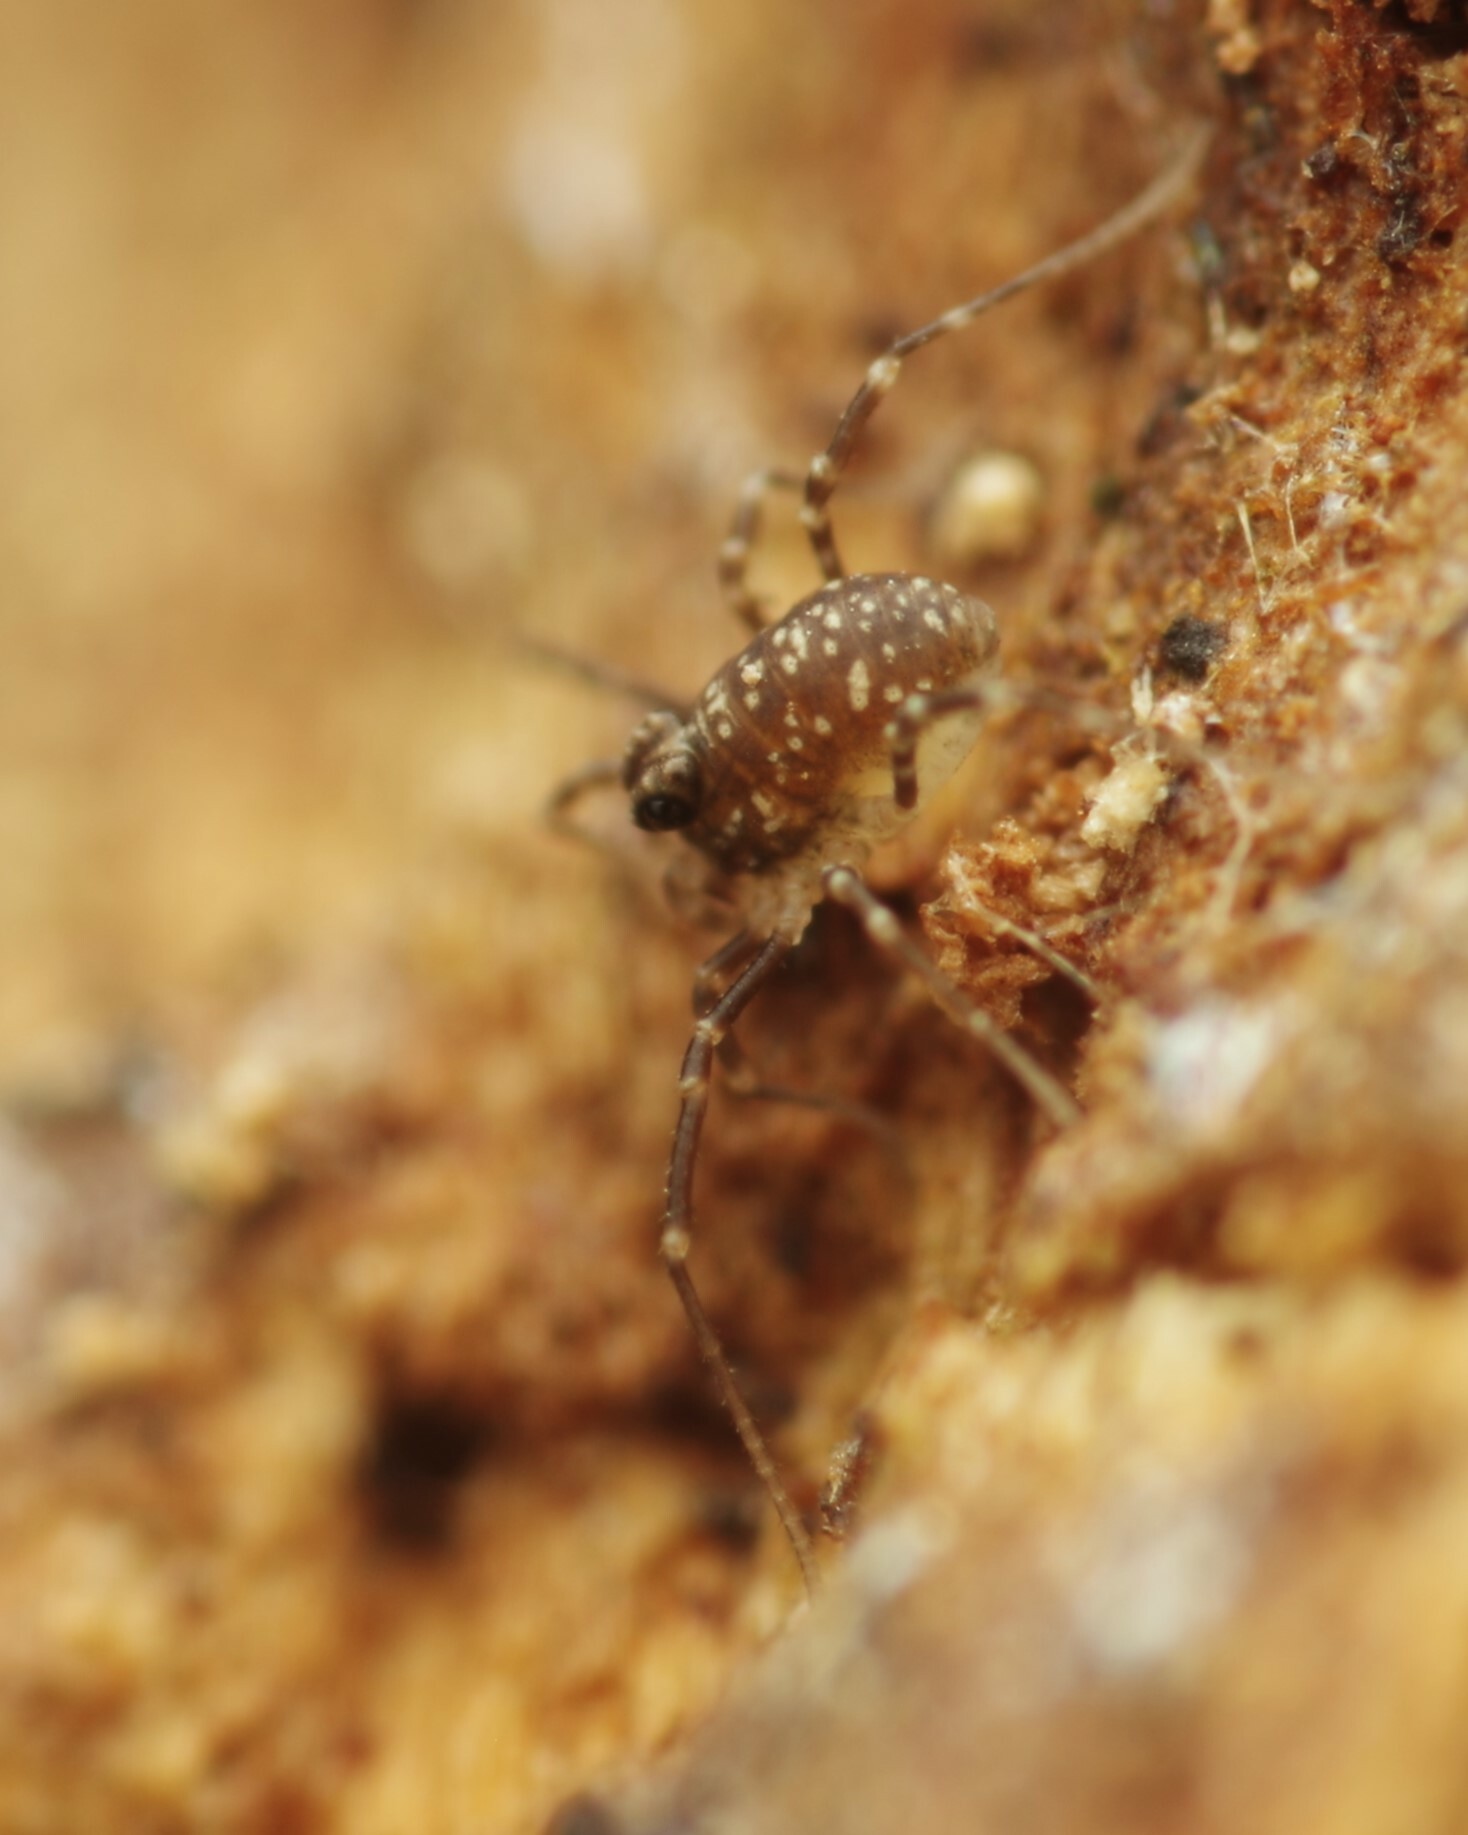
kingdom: Animalia
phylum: Arthropoda
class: Arachnida
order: Opiliones
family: Phalangiidae
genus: Rilaena
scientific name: Rilaena triangularis
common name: Spring harvestman
